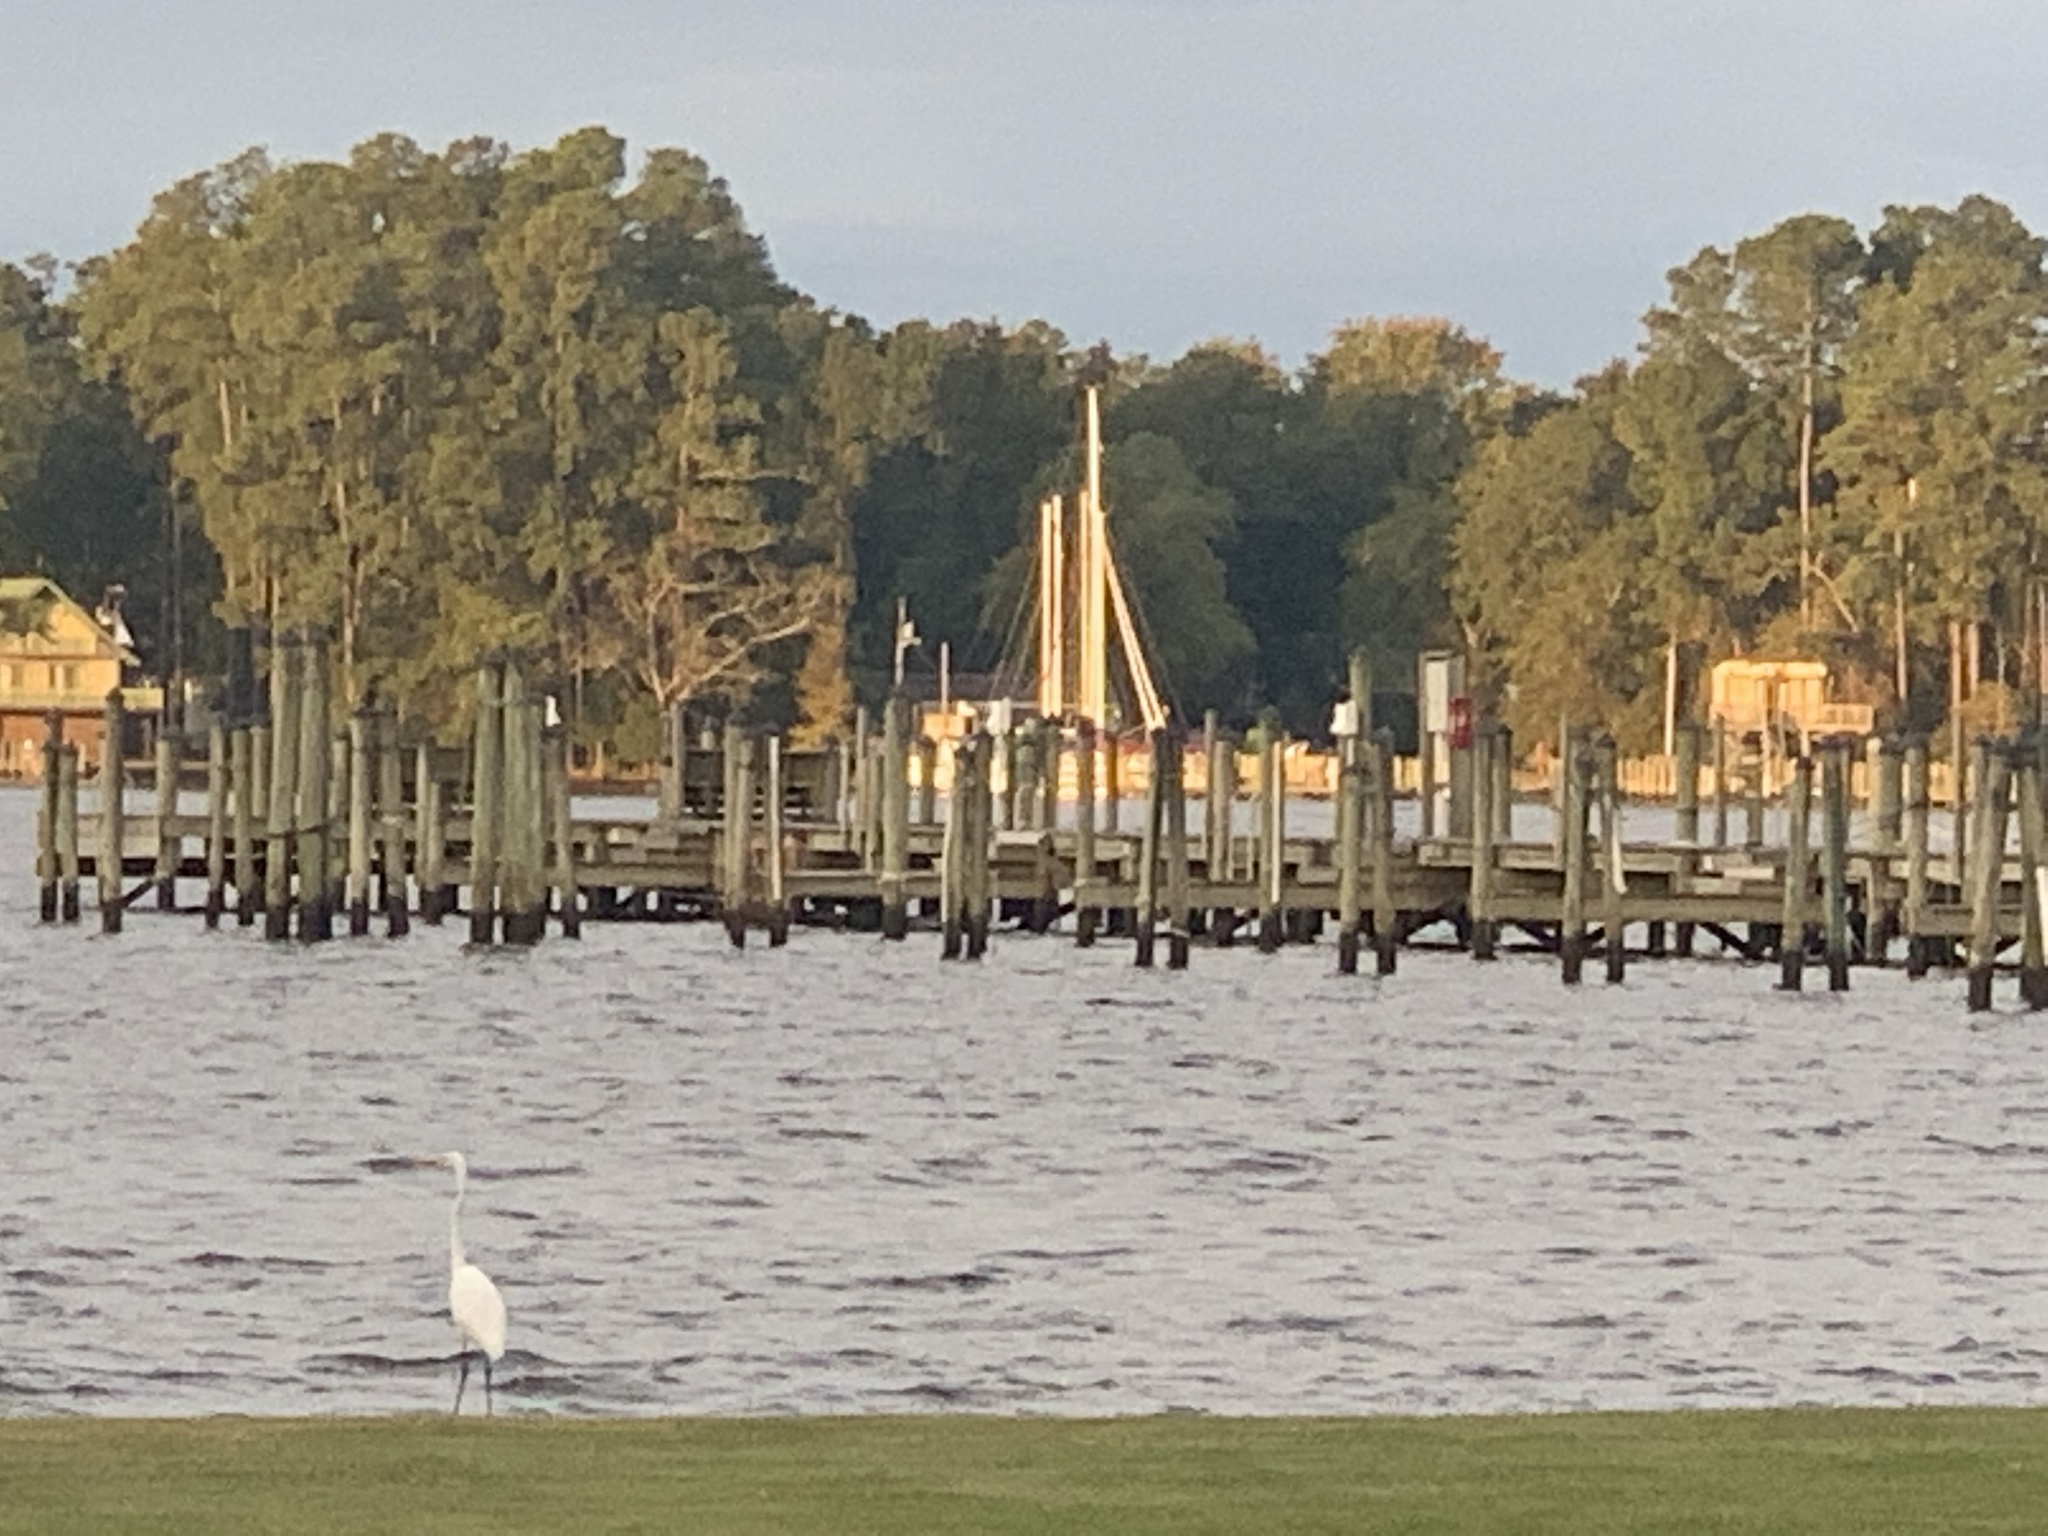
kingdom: Animalia
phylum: Chordata
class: Aves
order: Pelecaniformes
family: Ardeidae
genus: Ardea
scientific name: Ardea alba
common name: Great egret
